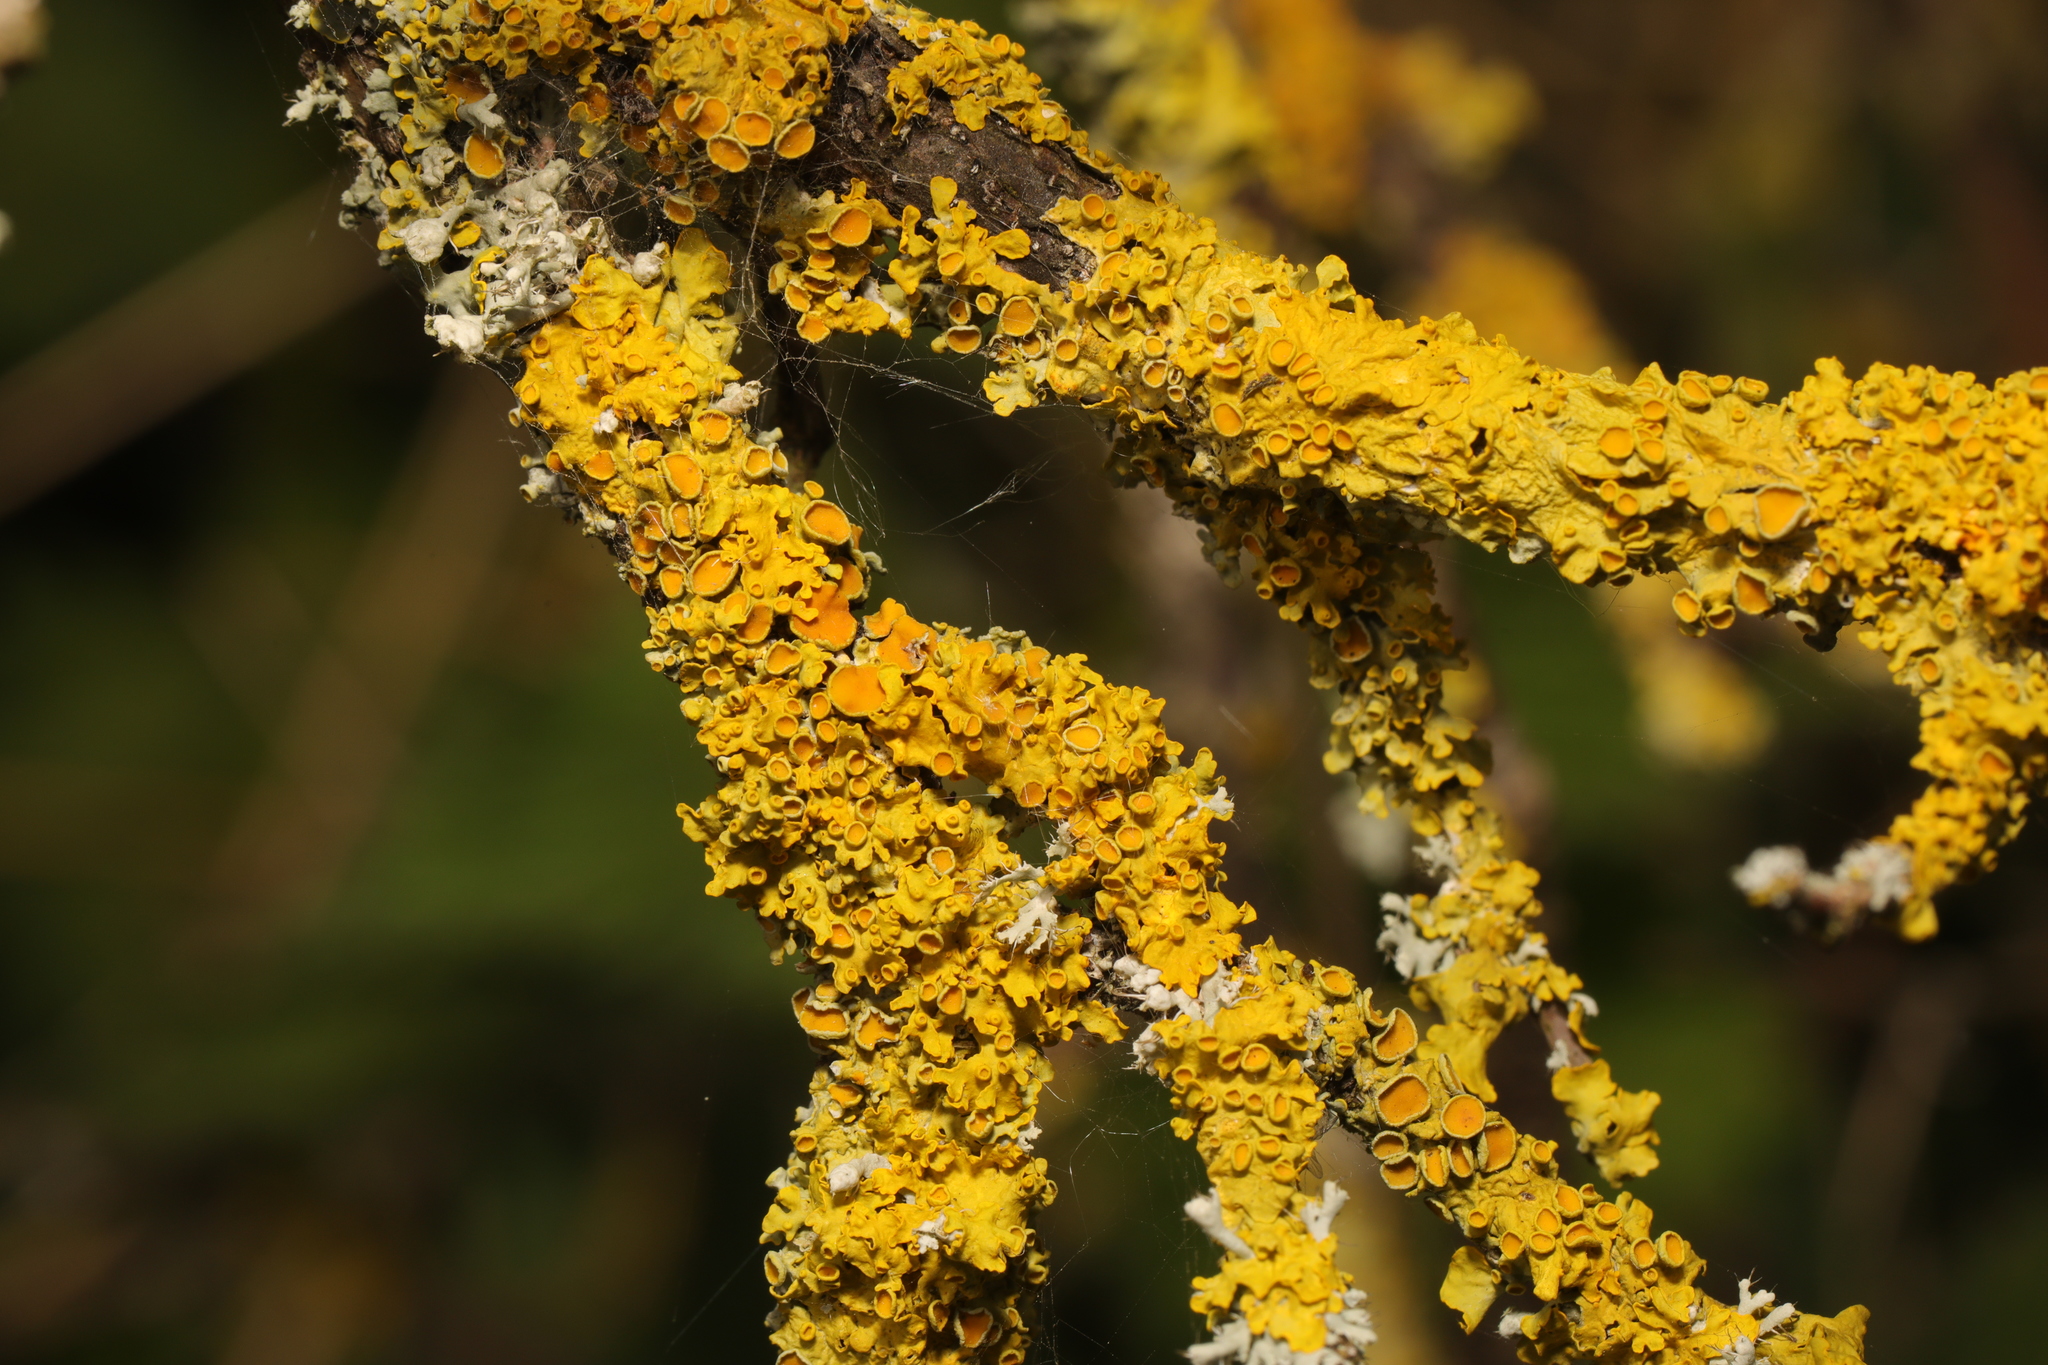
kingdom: Fungi
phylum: Ascomycota
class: Lecanoromycetes
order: Teloschistales
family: Teloschistaceae
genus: Xanthoria
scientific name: Xanthoria parietina
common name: Common orange lichen
